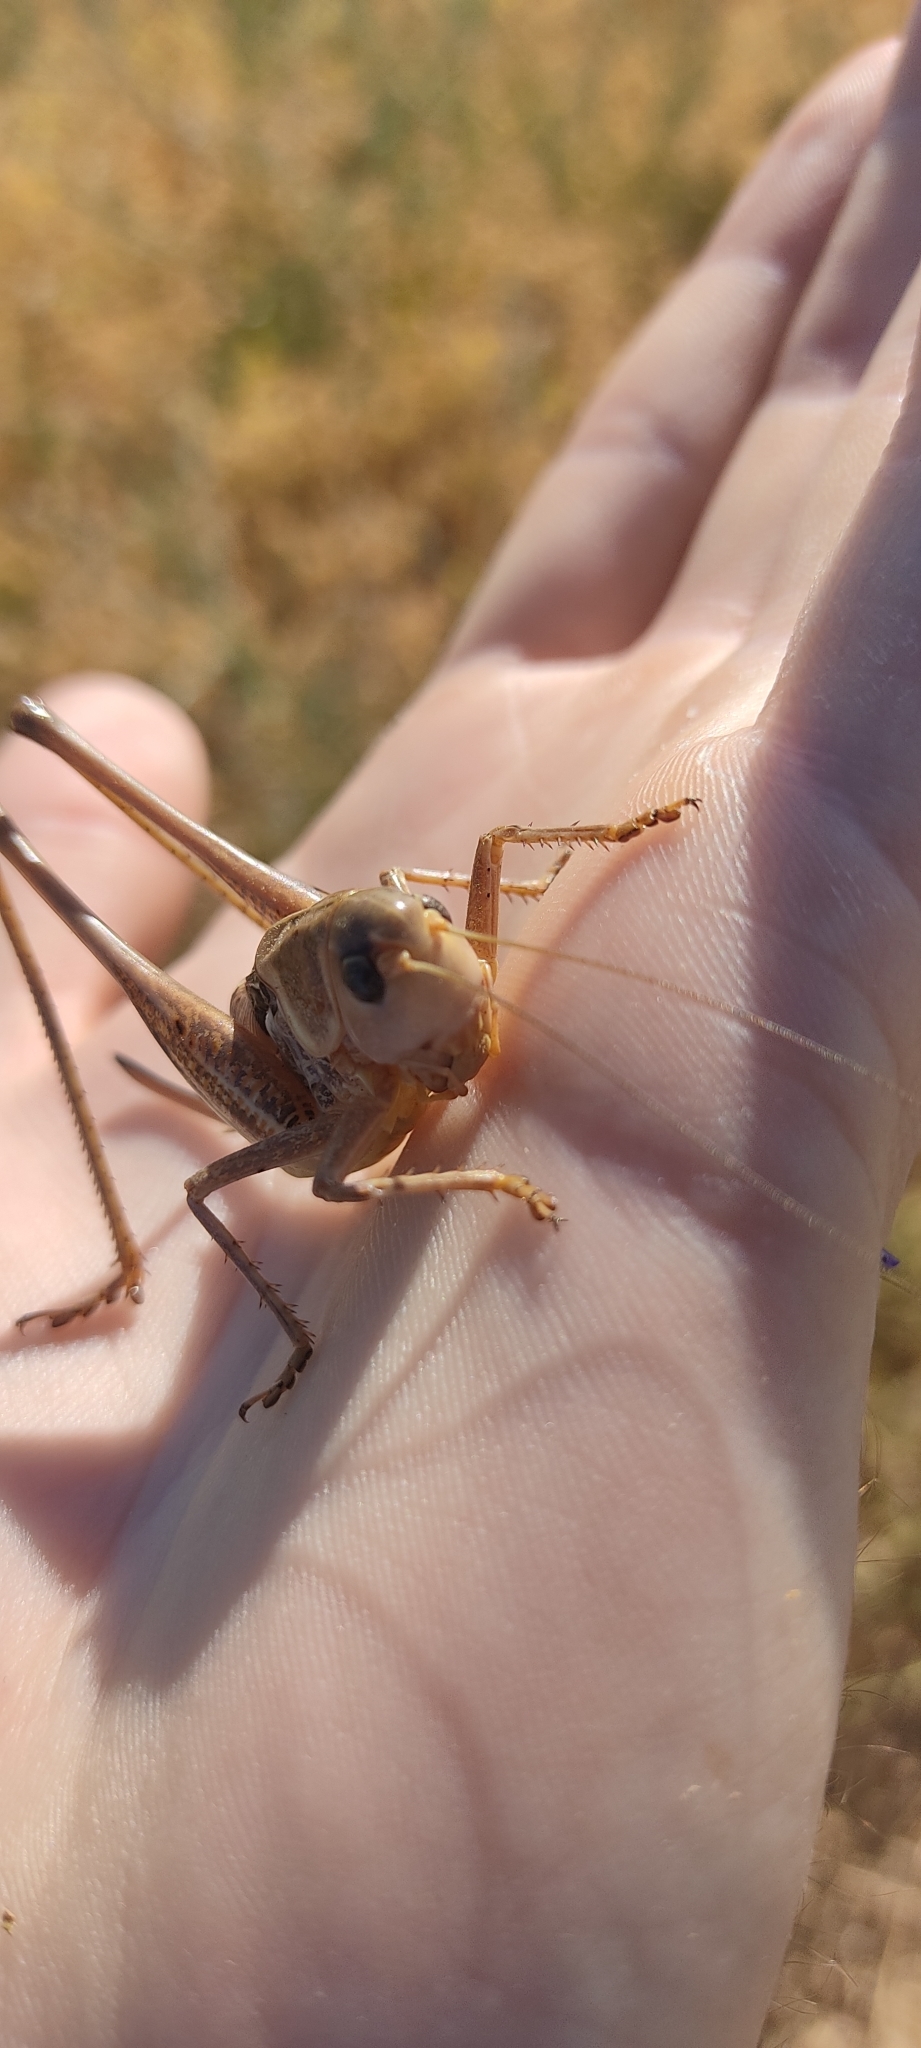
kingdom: Animalia
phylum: Arthropoda
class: Insecta
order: Orthoptera
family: Tettigoniidae
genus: Decticus
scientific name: Decticus albifrons
